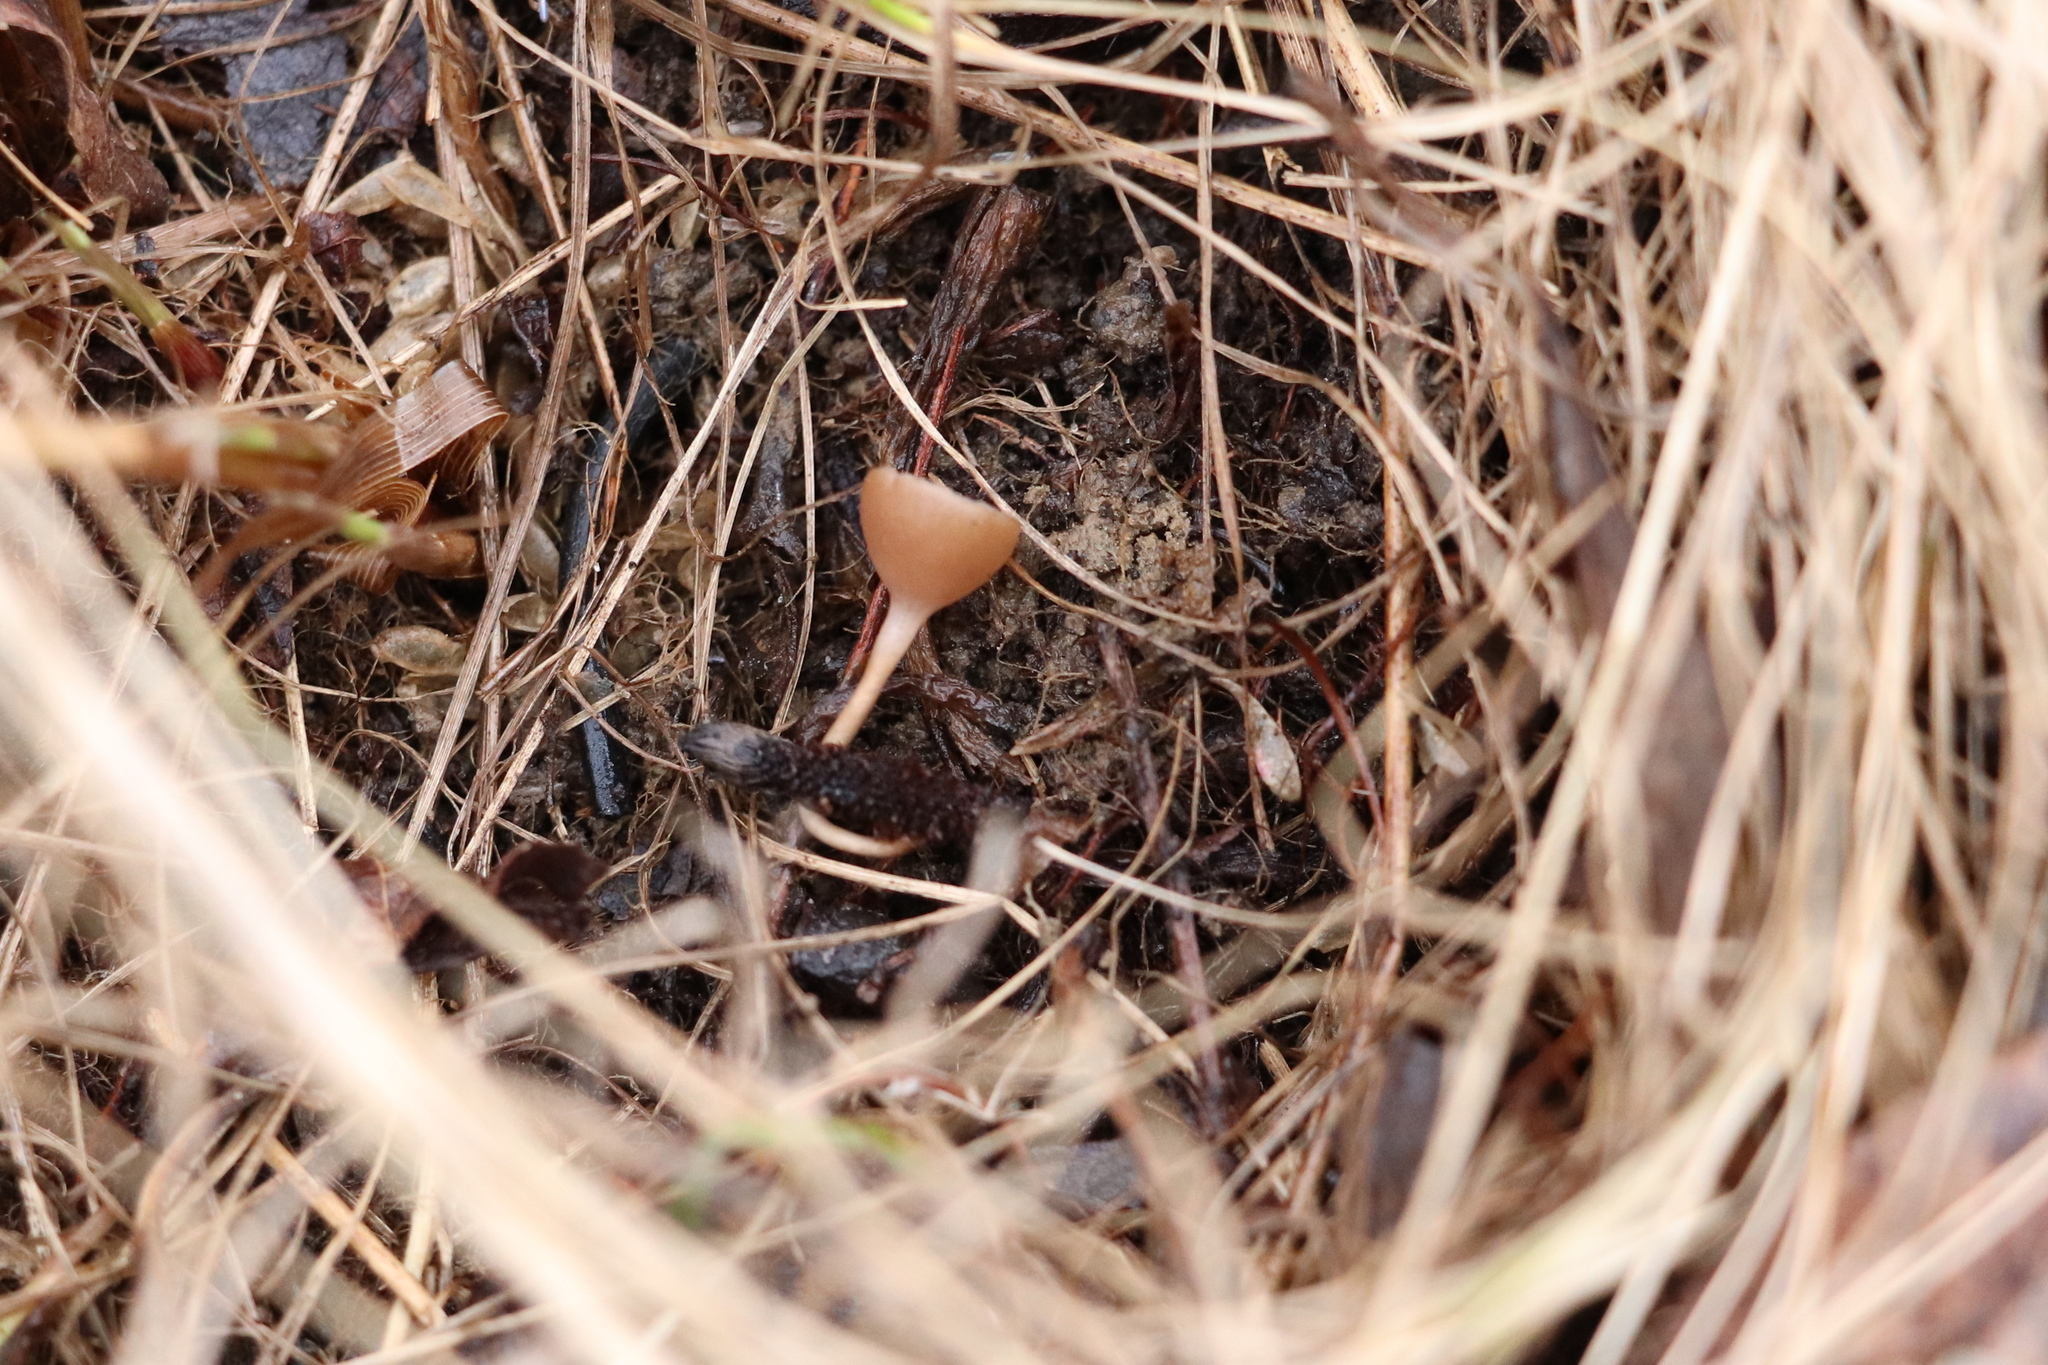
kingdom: Fungi
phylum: Ascomycota
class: Leotiomycetes
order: Helotiales
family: Sclerotiniaceae
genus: Ciboria
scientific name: Ciboria caucus
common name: Alder goblet
